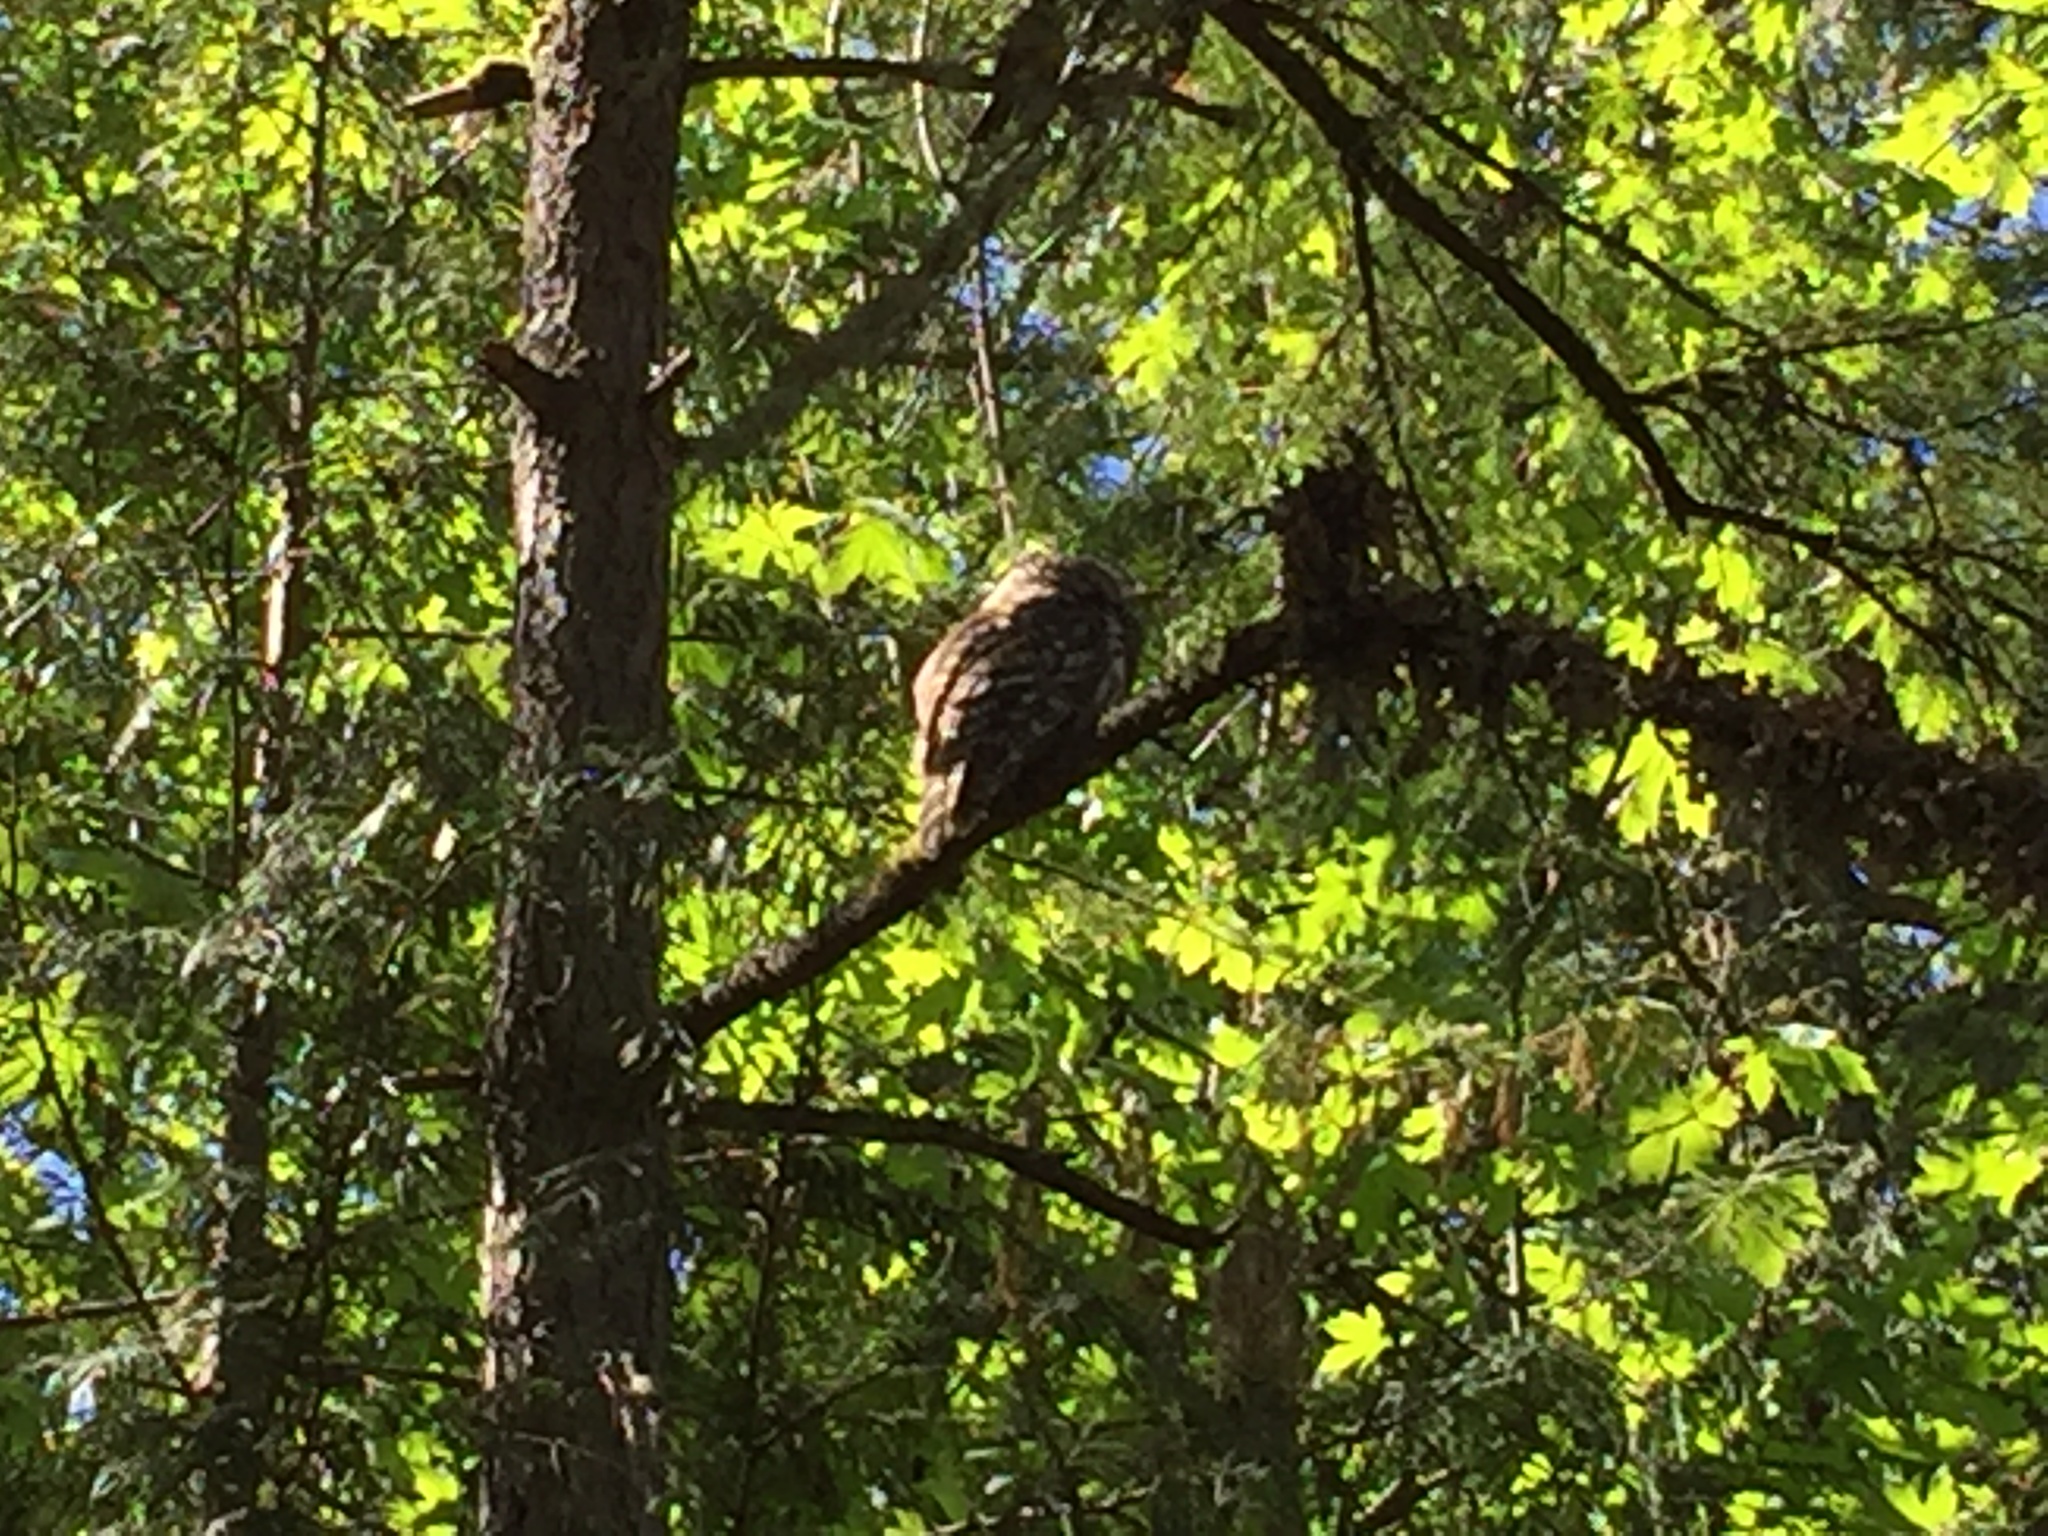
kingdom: Animalia
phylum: Chordata
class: Aves
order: Strigiformes
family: Strigidae
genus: Strix
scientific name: Strix varia
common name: Barred owl
